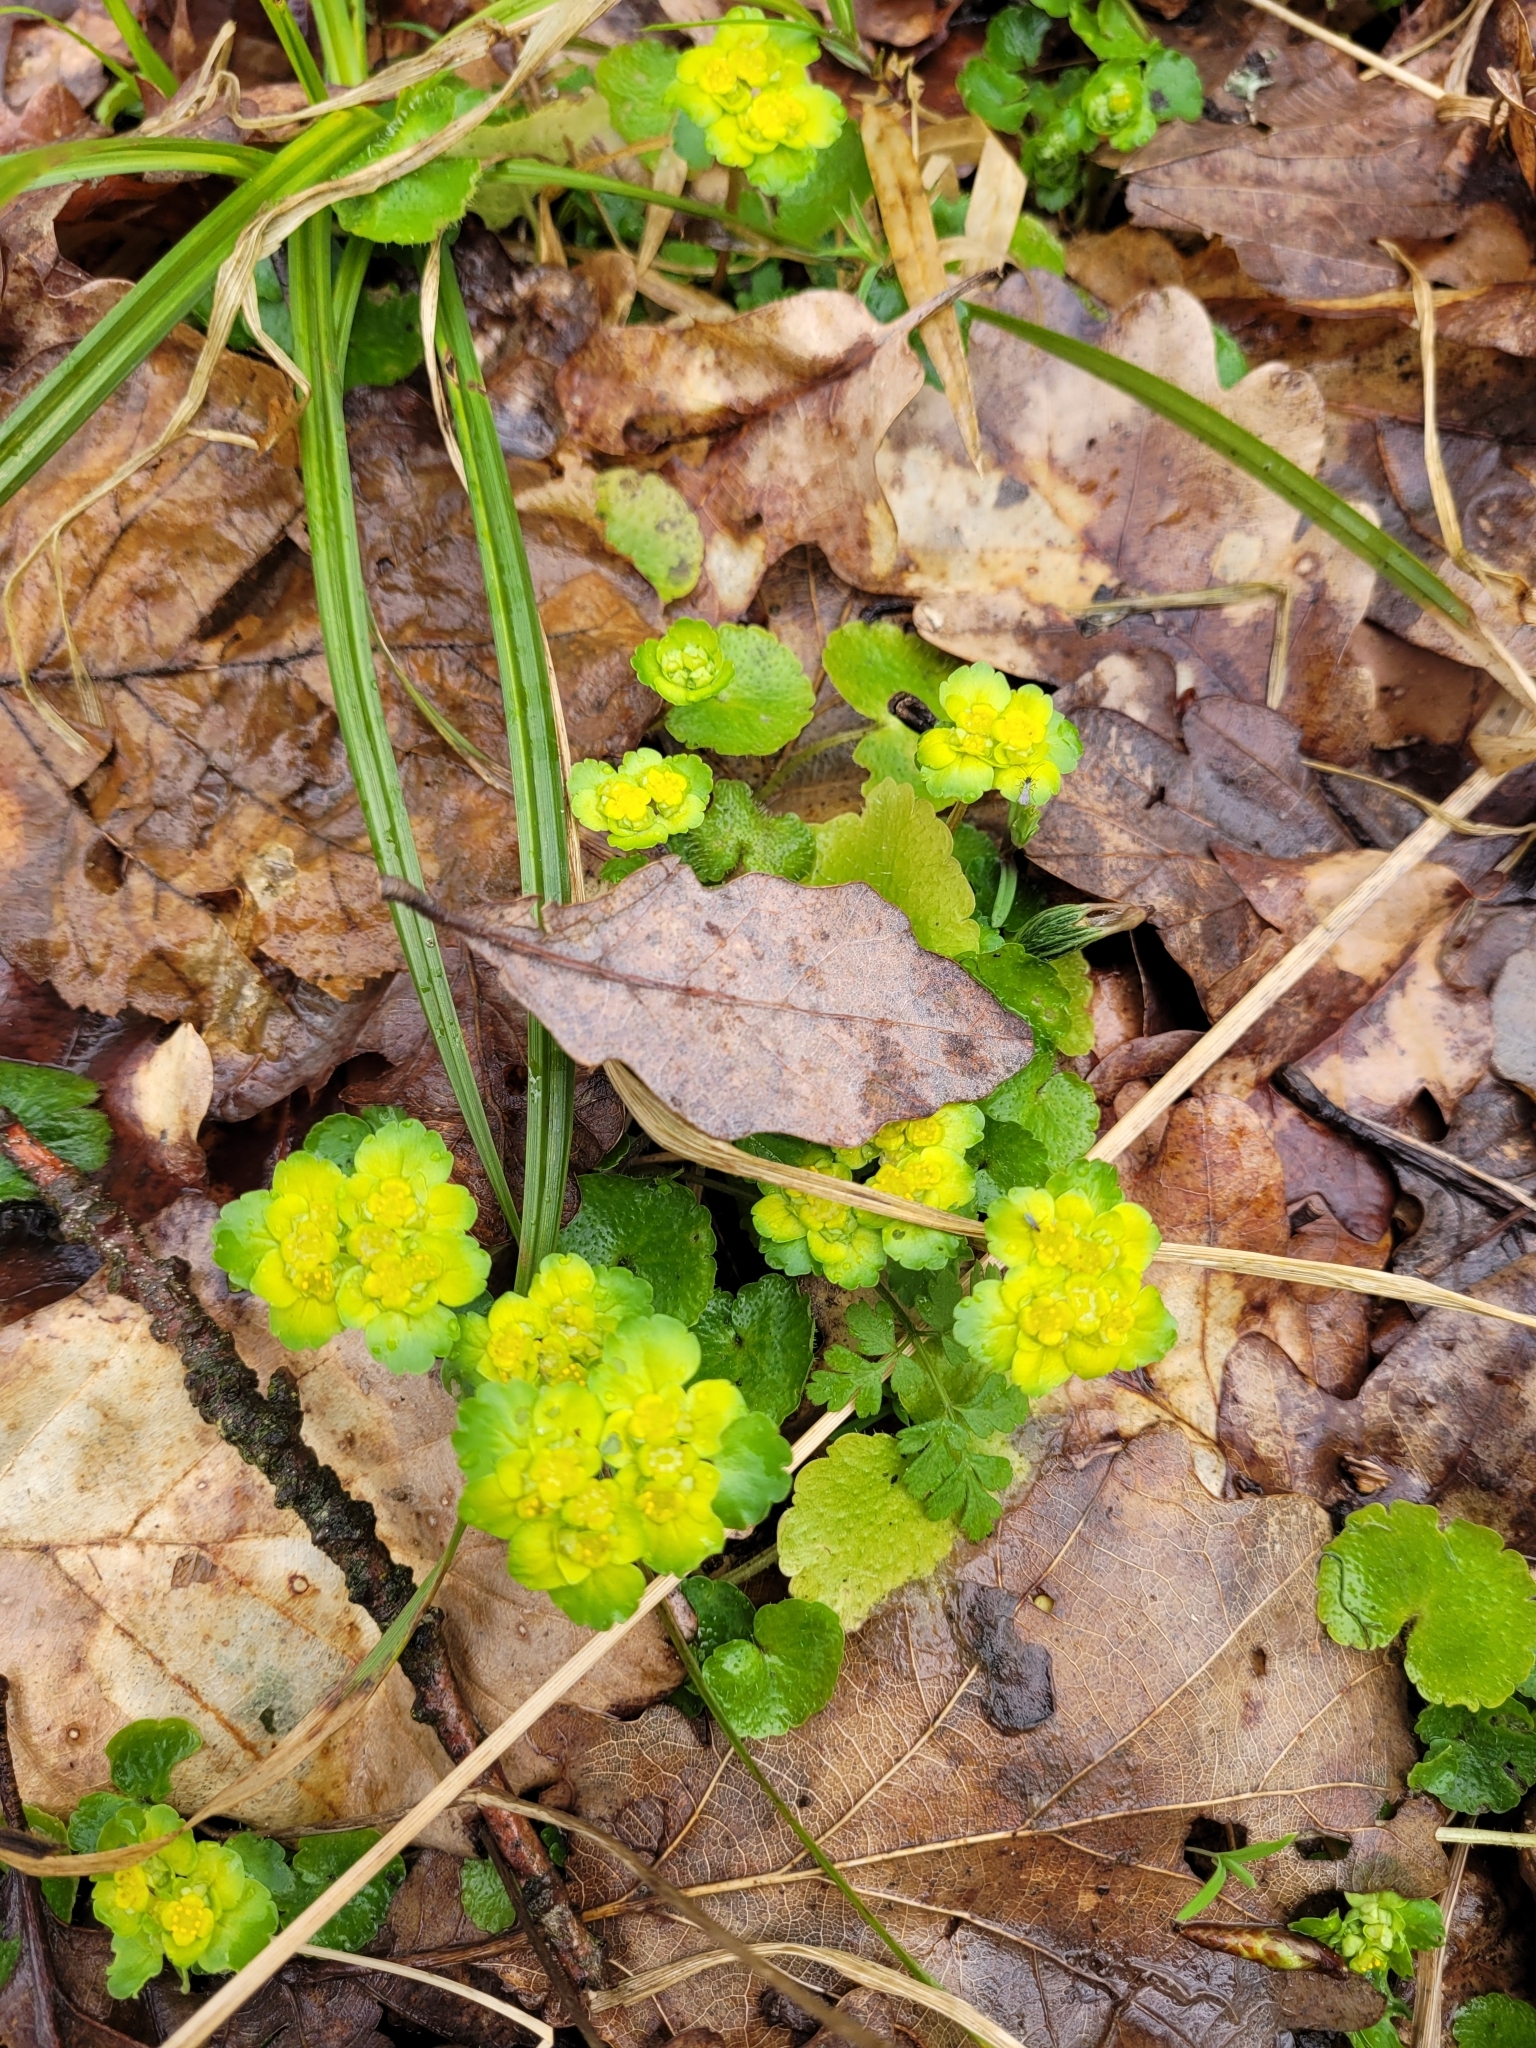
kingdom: Plantae
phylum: Tracheophyta
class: Magnoliopsida
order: Saxifragales
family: Saxifragaceae
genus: Chrysosplenium
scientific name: Chrysosplenium alternifolium
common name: Alternate-leaved golden-saxifrage
